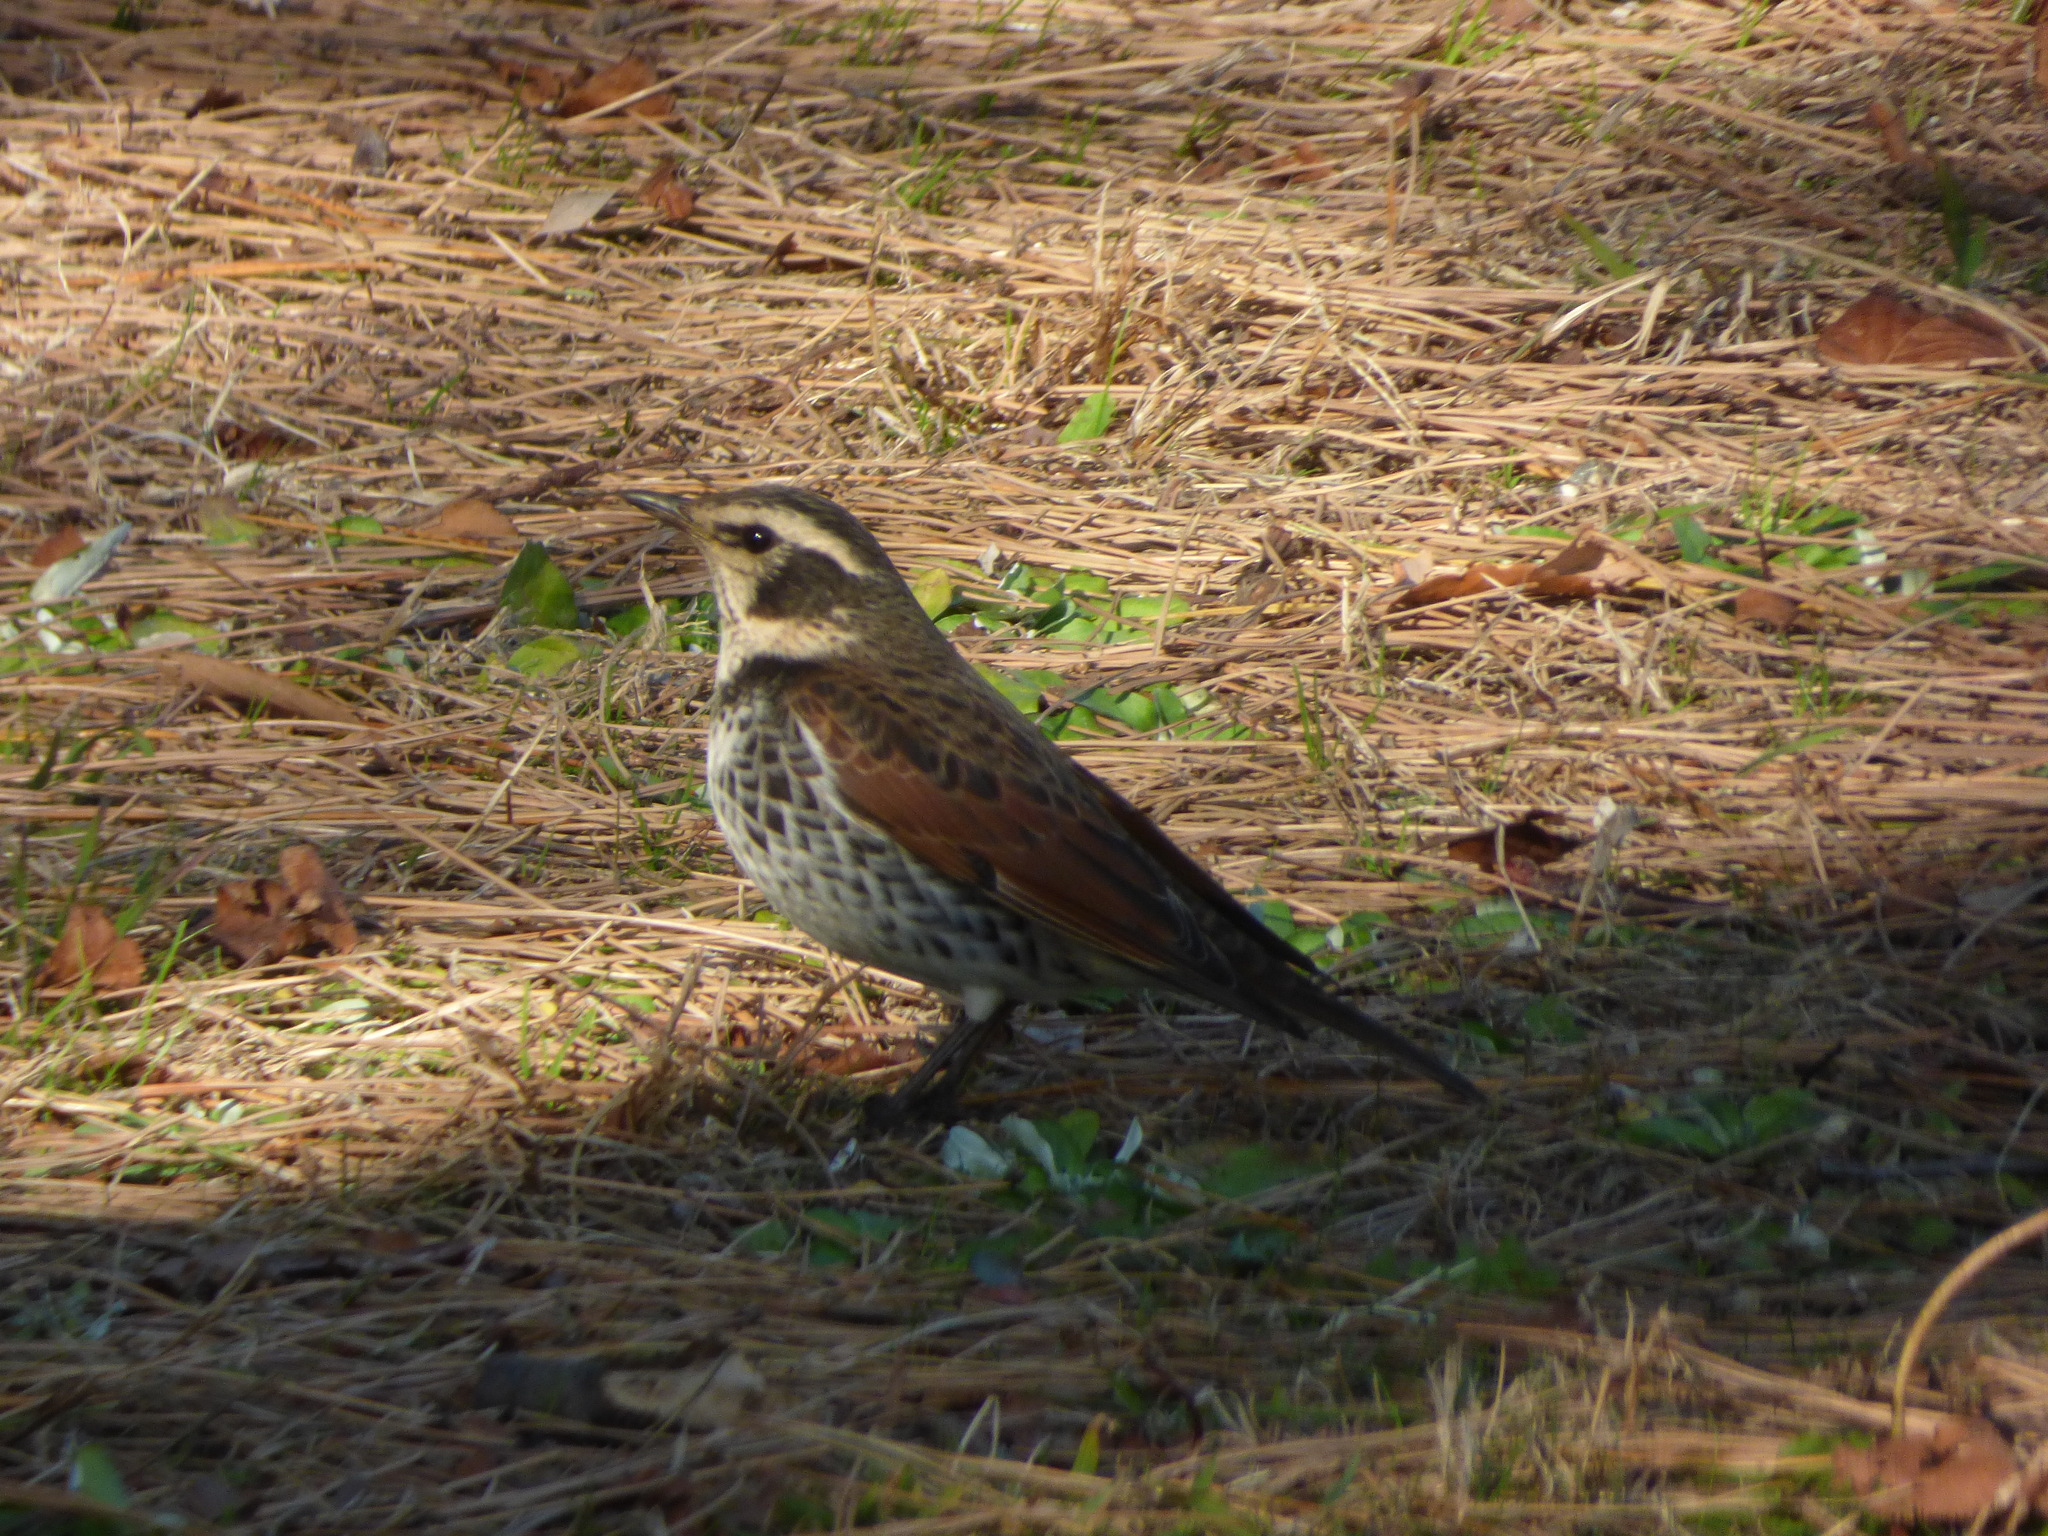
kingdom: Animalia
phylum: Chordata
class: Aves
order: Passeriformes
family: Turdidae
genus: Turdus
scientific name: Turdus eunomus
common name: Dusky thrush
